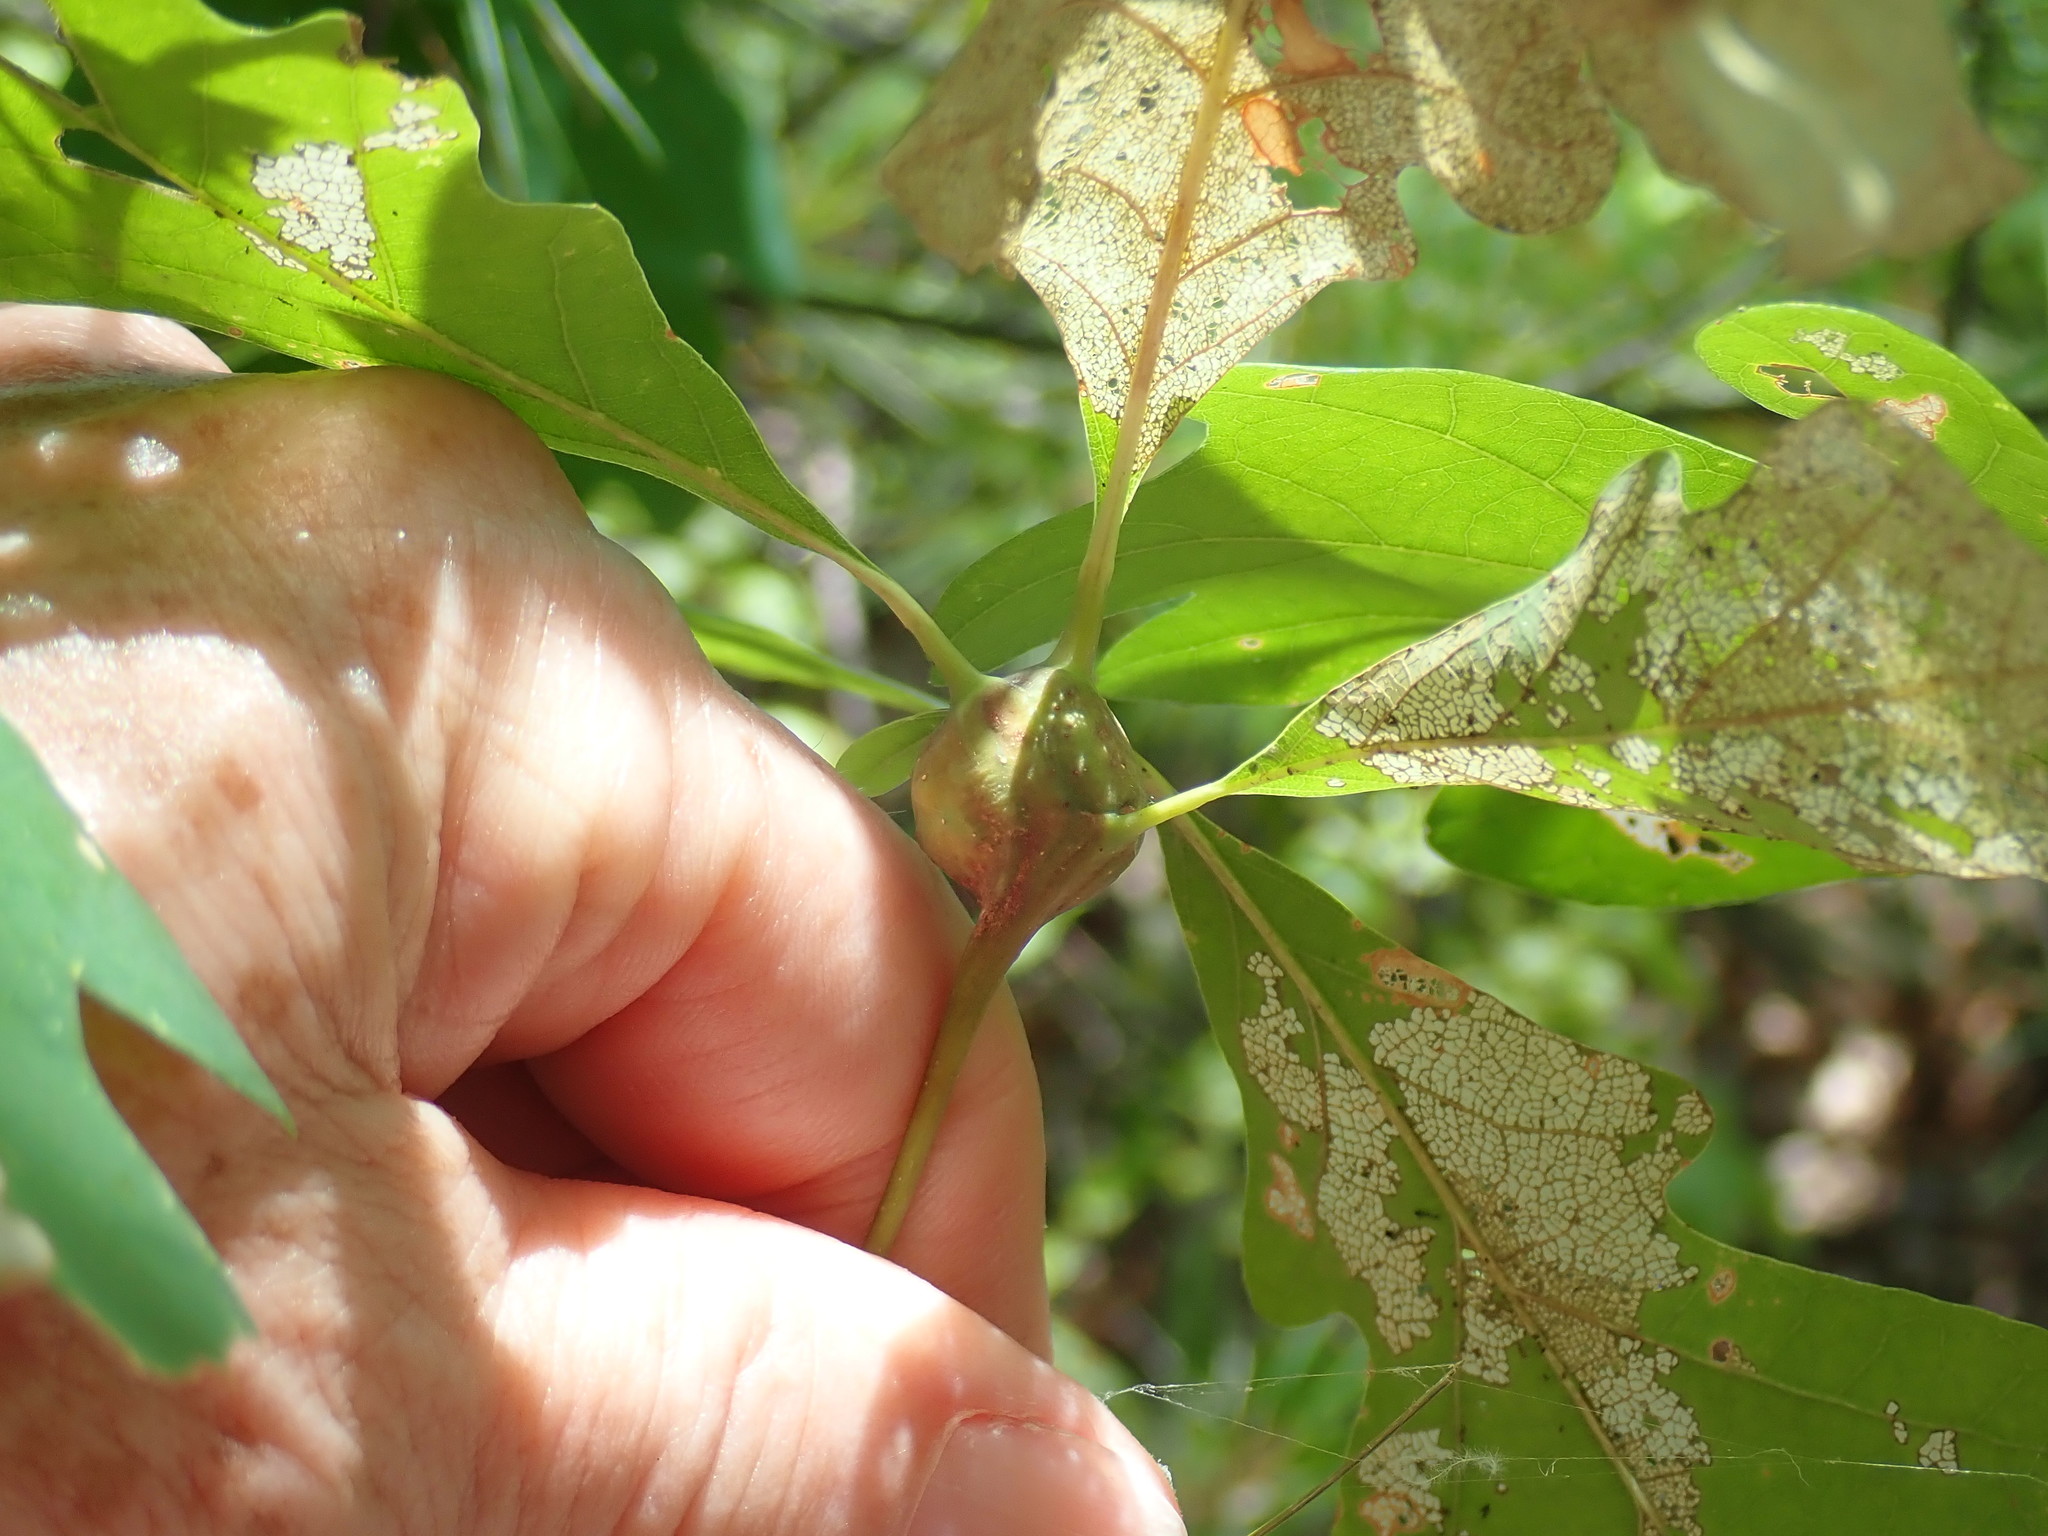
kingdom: Animalia
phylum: Arthropoda
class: Insecta
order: Hymenoptera
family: Cynipidae
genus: Callirhytis
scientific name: Callirhytis clavula
